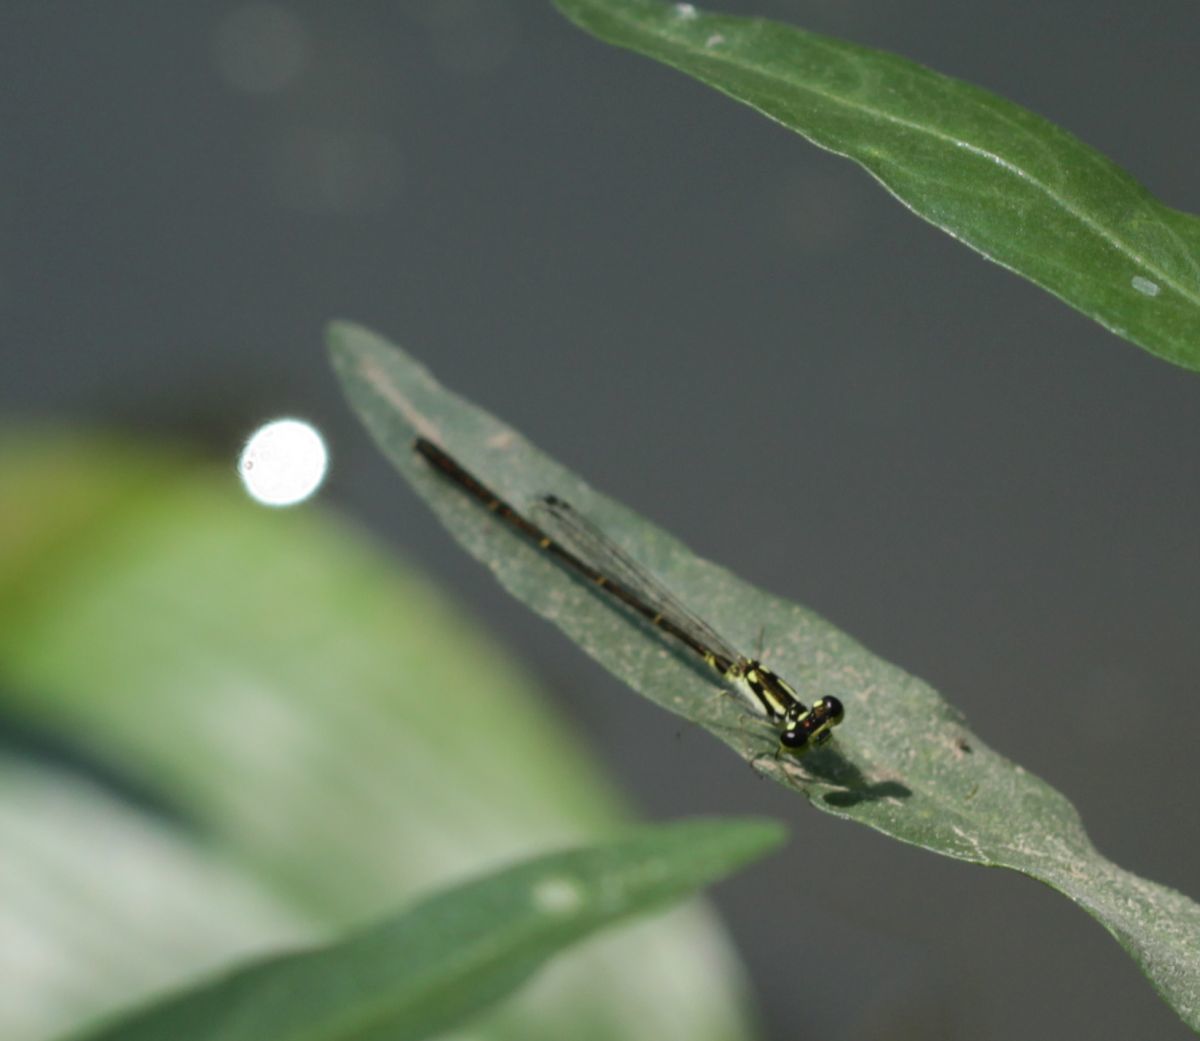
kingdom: Animalia
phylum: Arthropoda
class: Insecta
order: Odonata
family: Coenagrionidae
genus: Ischnura
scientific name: Ischnura posita
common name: Fragile forktail
